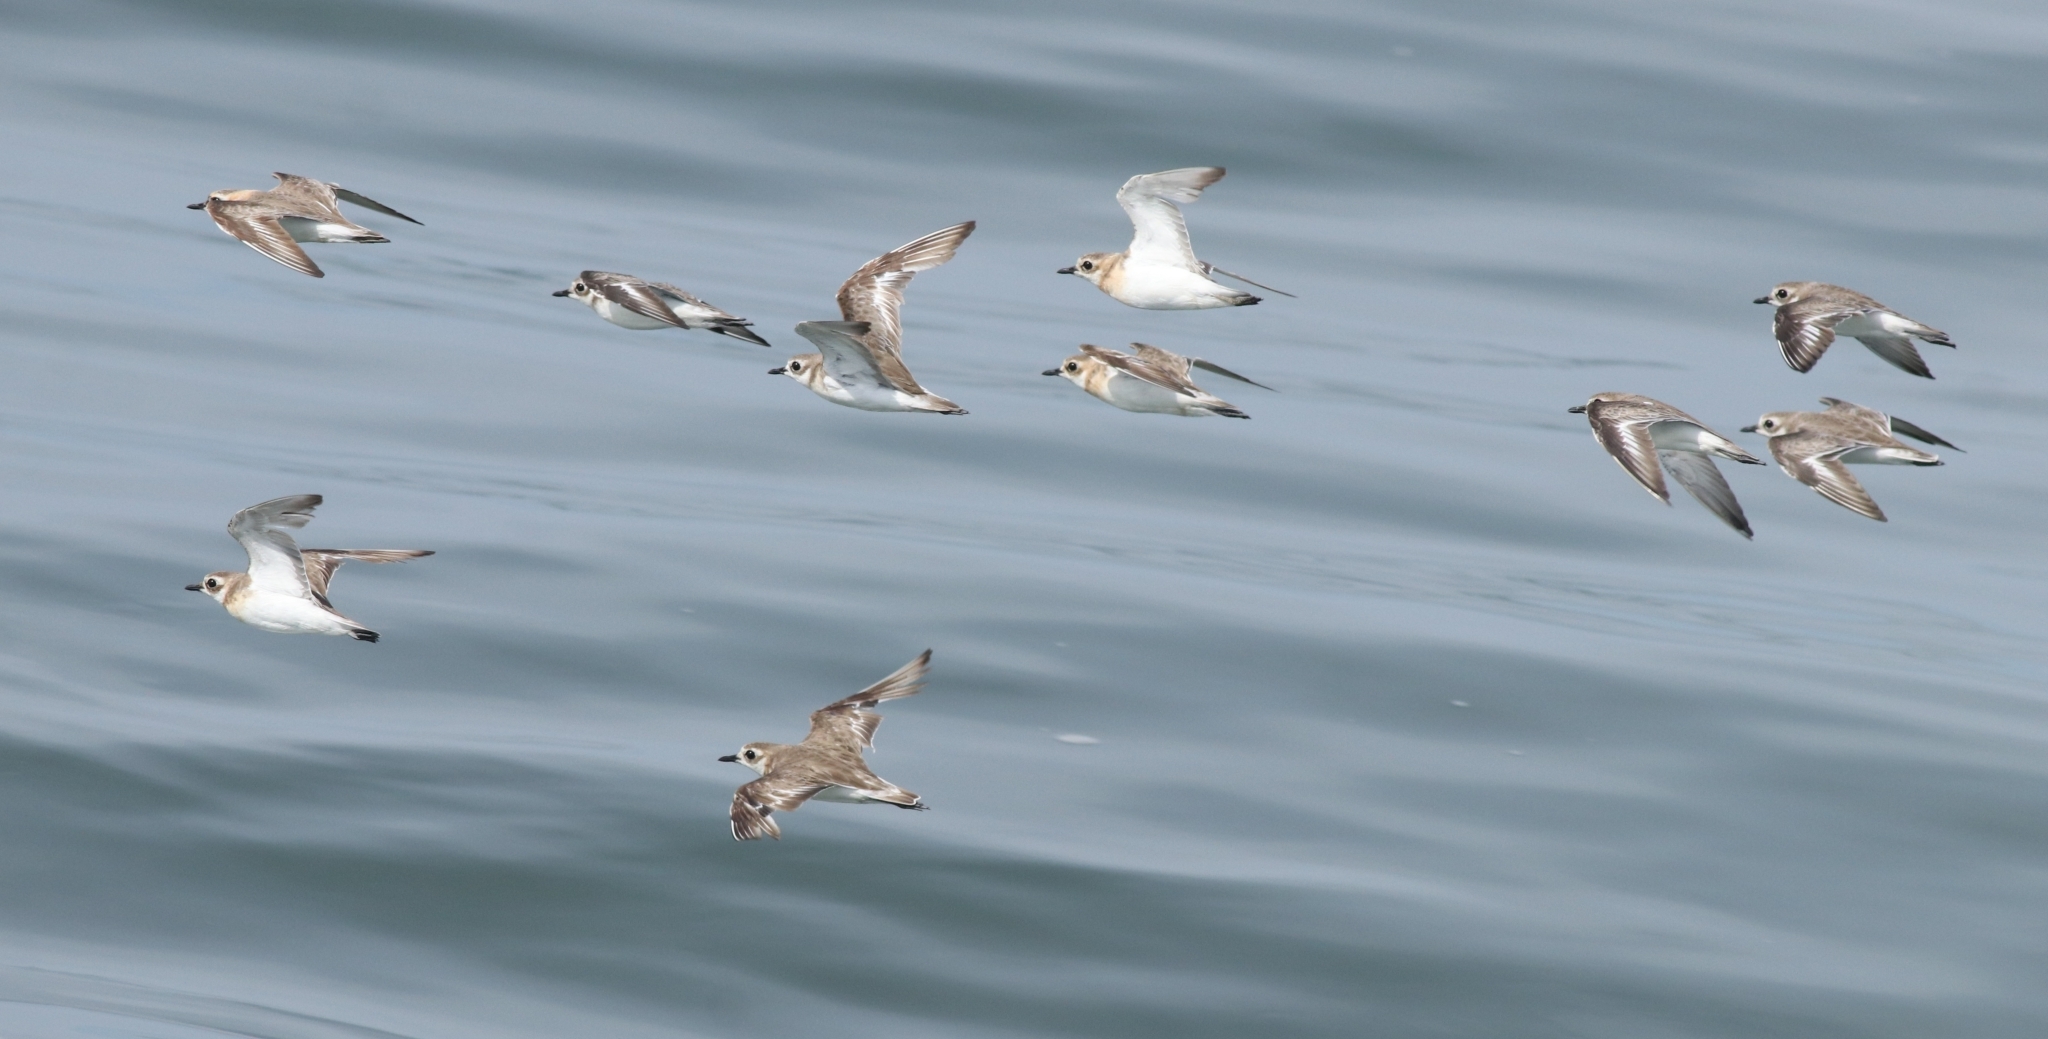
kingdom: Animalia
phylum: Chordata
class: Aves
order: Charadriiformes
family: Charadriidae
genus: Anarhynchus
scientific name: Anarhynchus
